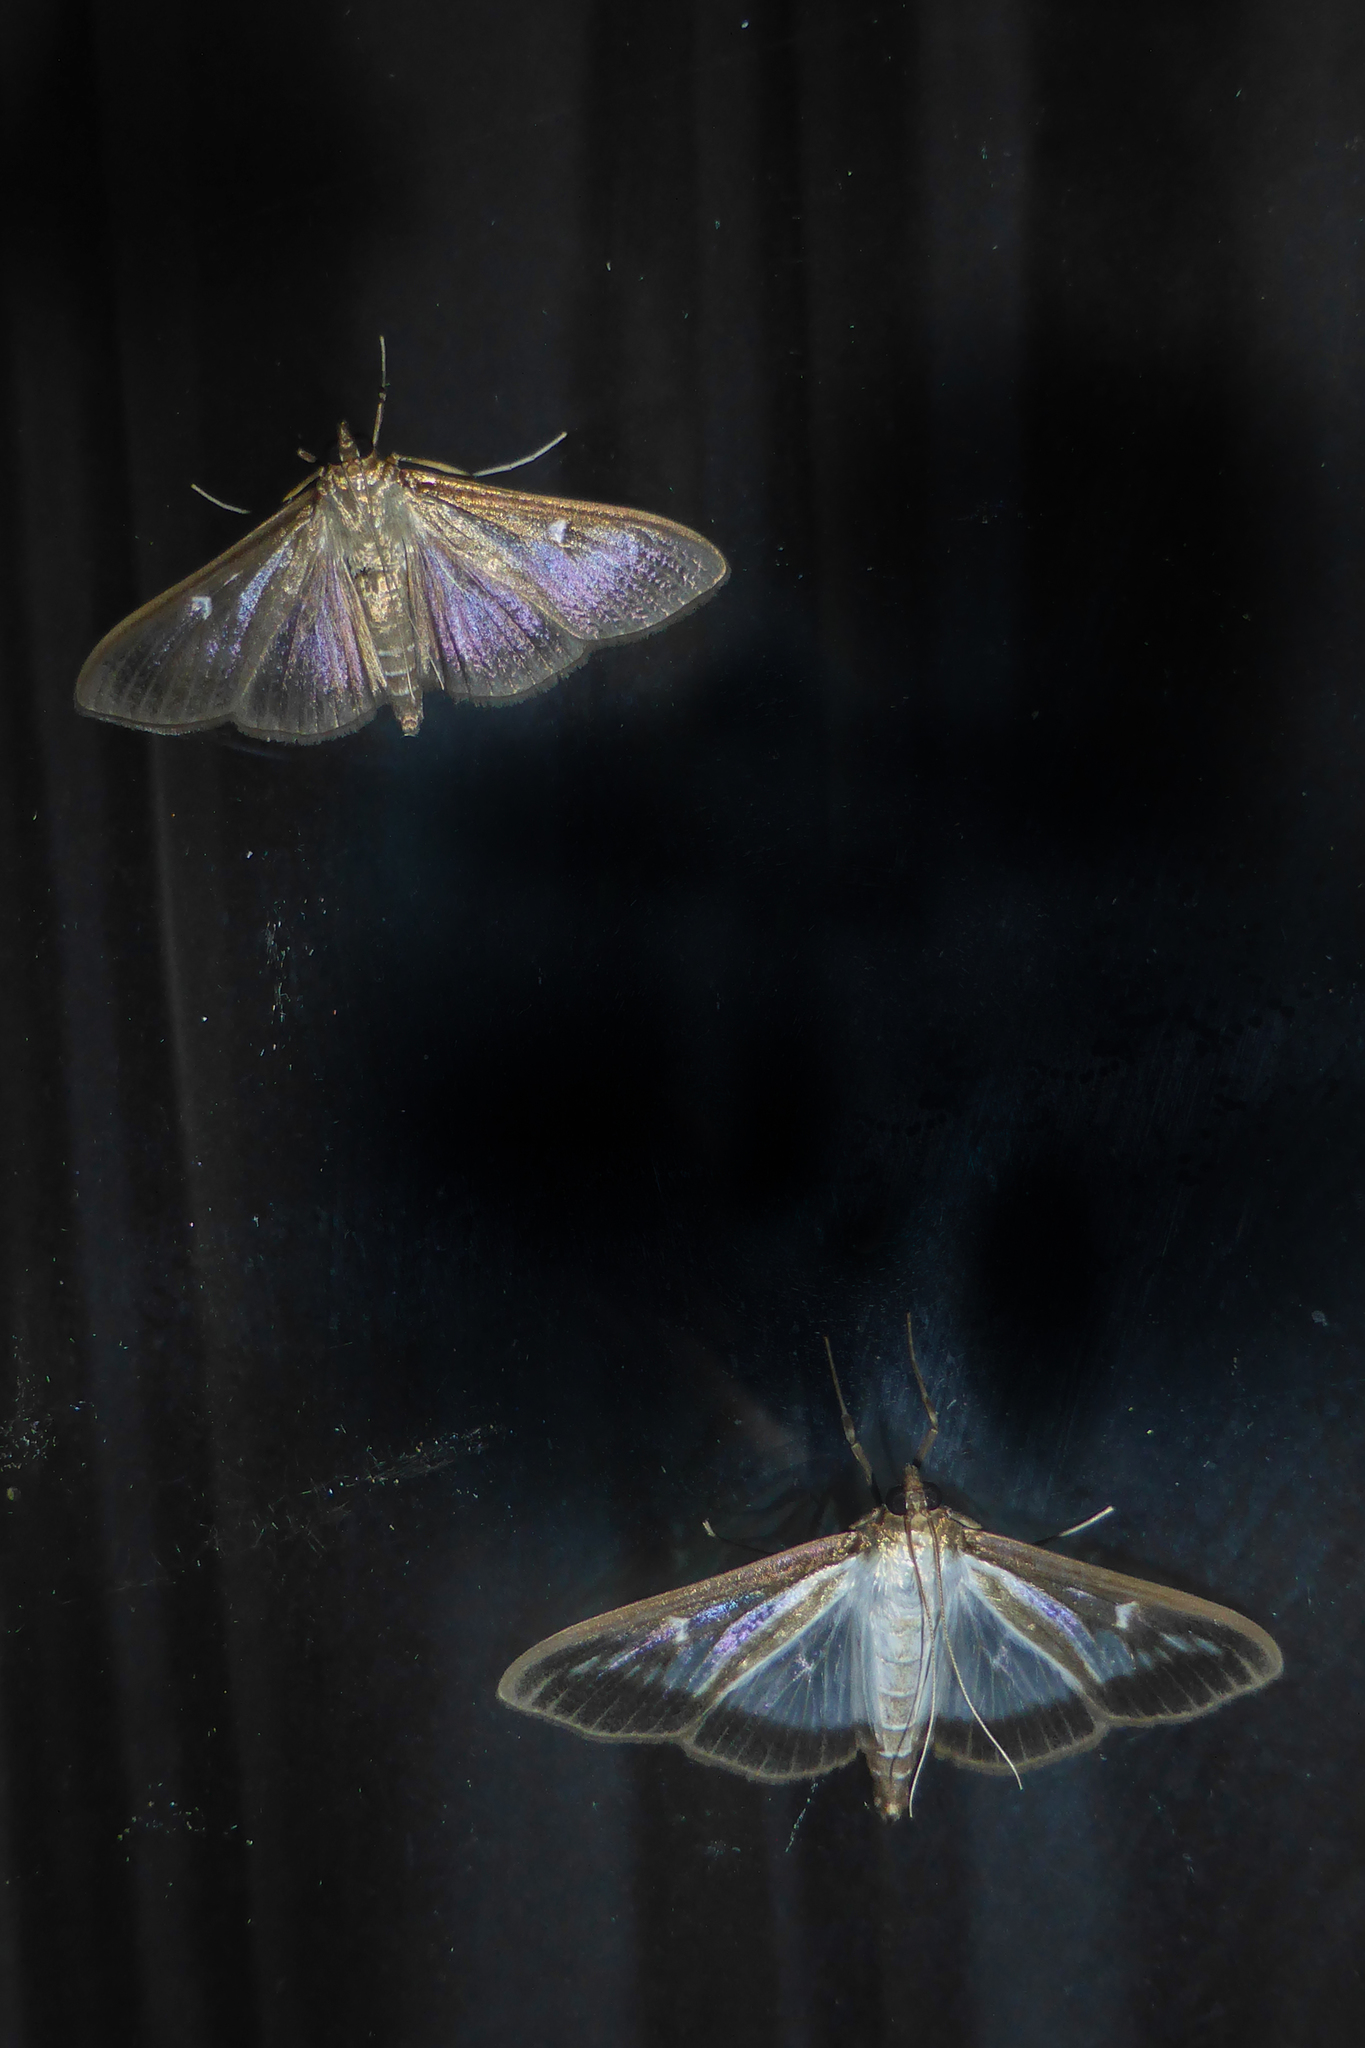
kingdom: Animalia
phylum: Arthropoda
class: Insecta
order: Lepidoptera
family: Crambidae
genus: Cydalima
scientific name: Cydalima perspectalis
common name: Box tree moth
